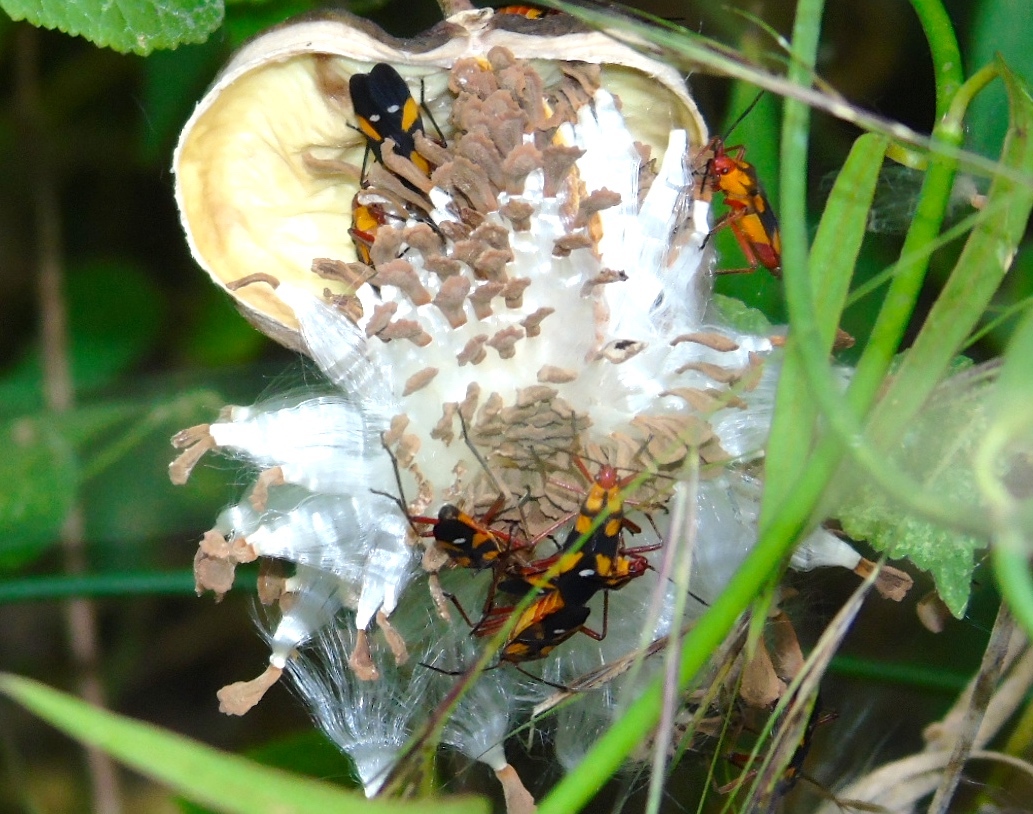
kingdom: Animalia
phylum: Arthropoda
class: Insecta
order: Hemiptera
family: Lygaeidae
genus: Oncopeltus
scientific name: Oncopeltus guttaloides
